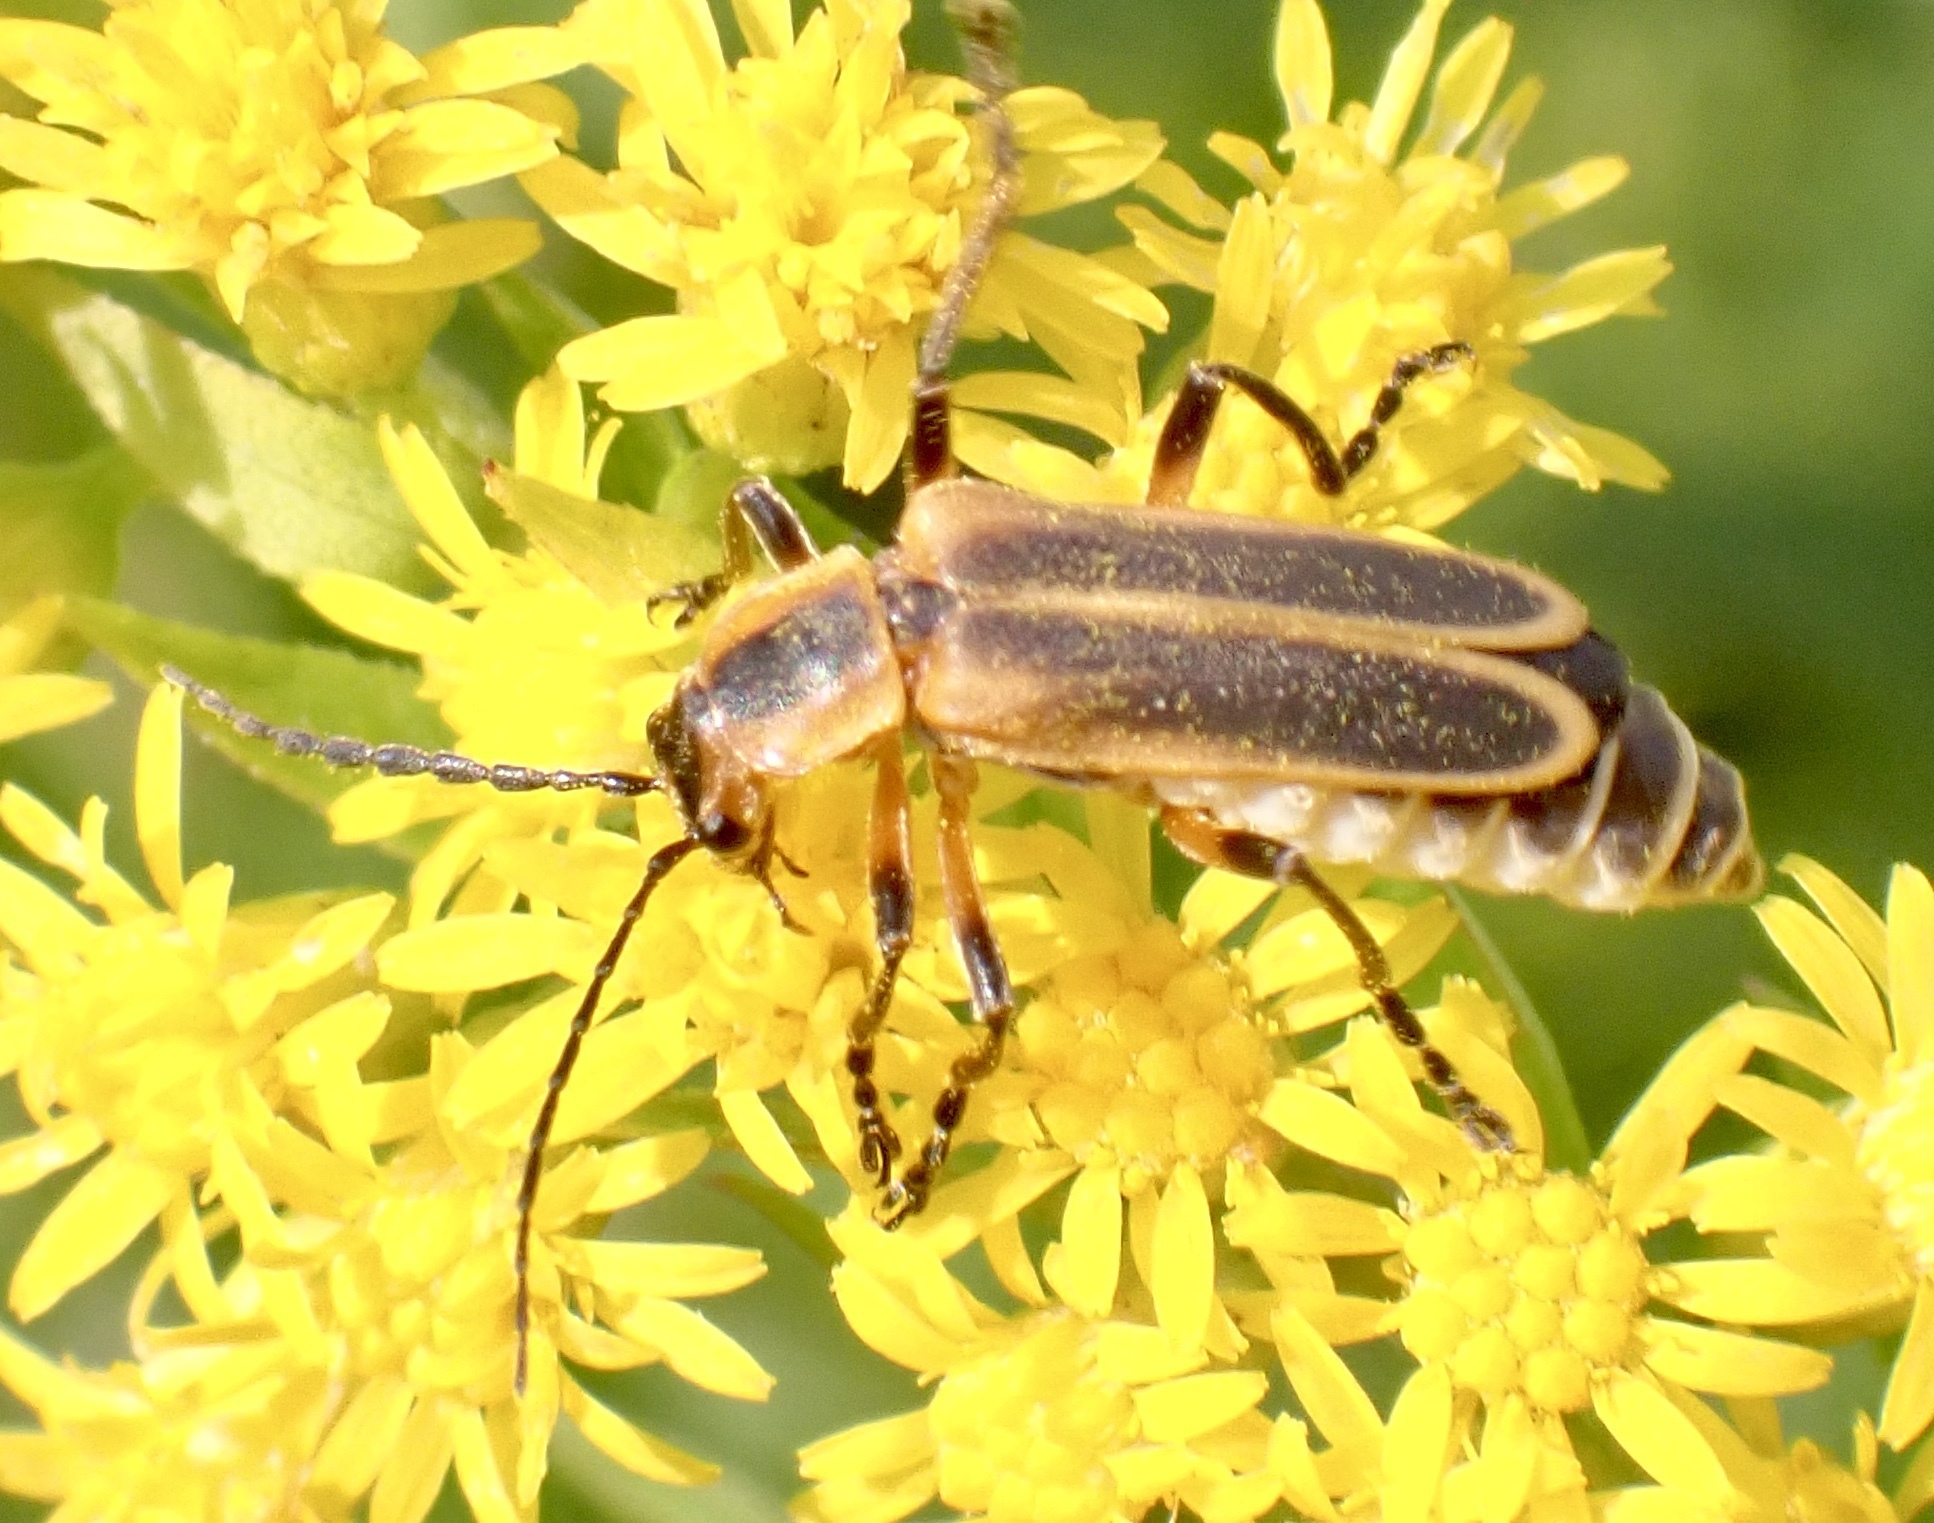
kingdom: Animalia
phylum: Arthropoda
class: Insecta
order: Coleoptera
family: Cantharidae
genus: Chauliognathus
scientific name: Chauliognathus marginatus
